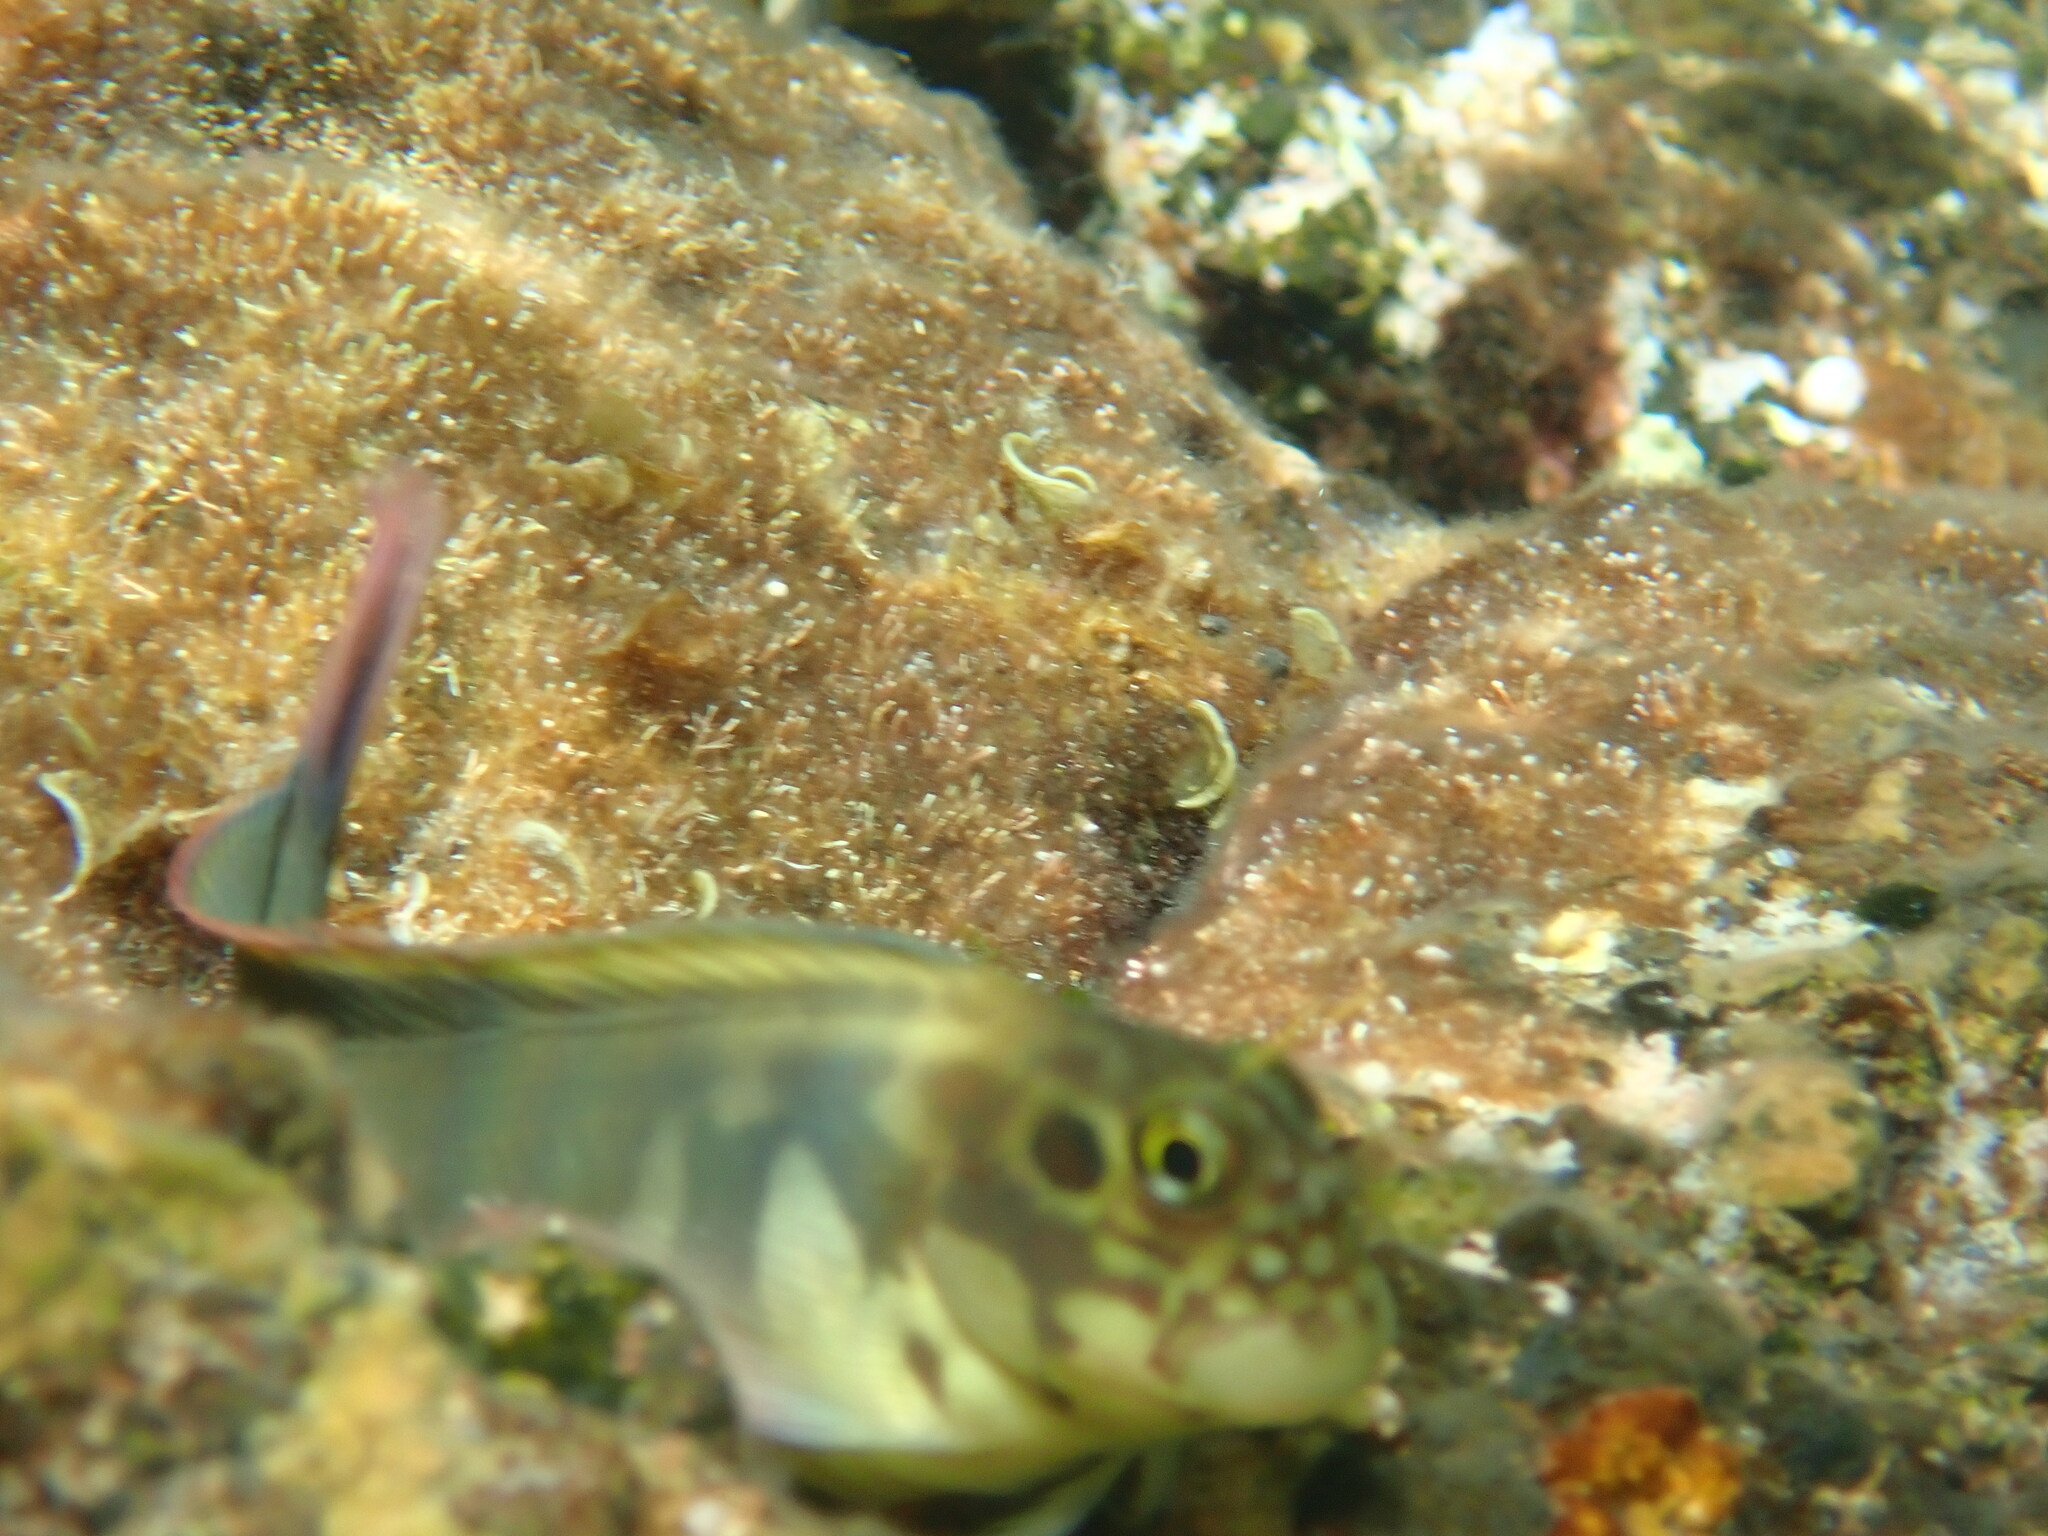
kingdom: Animalia
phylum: Chordata
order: Perciformes
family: Blenniidae
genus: Ophioblennius
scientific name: Ophioblennius atlanticus
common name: Redlip blenny
